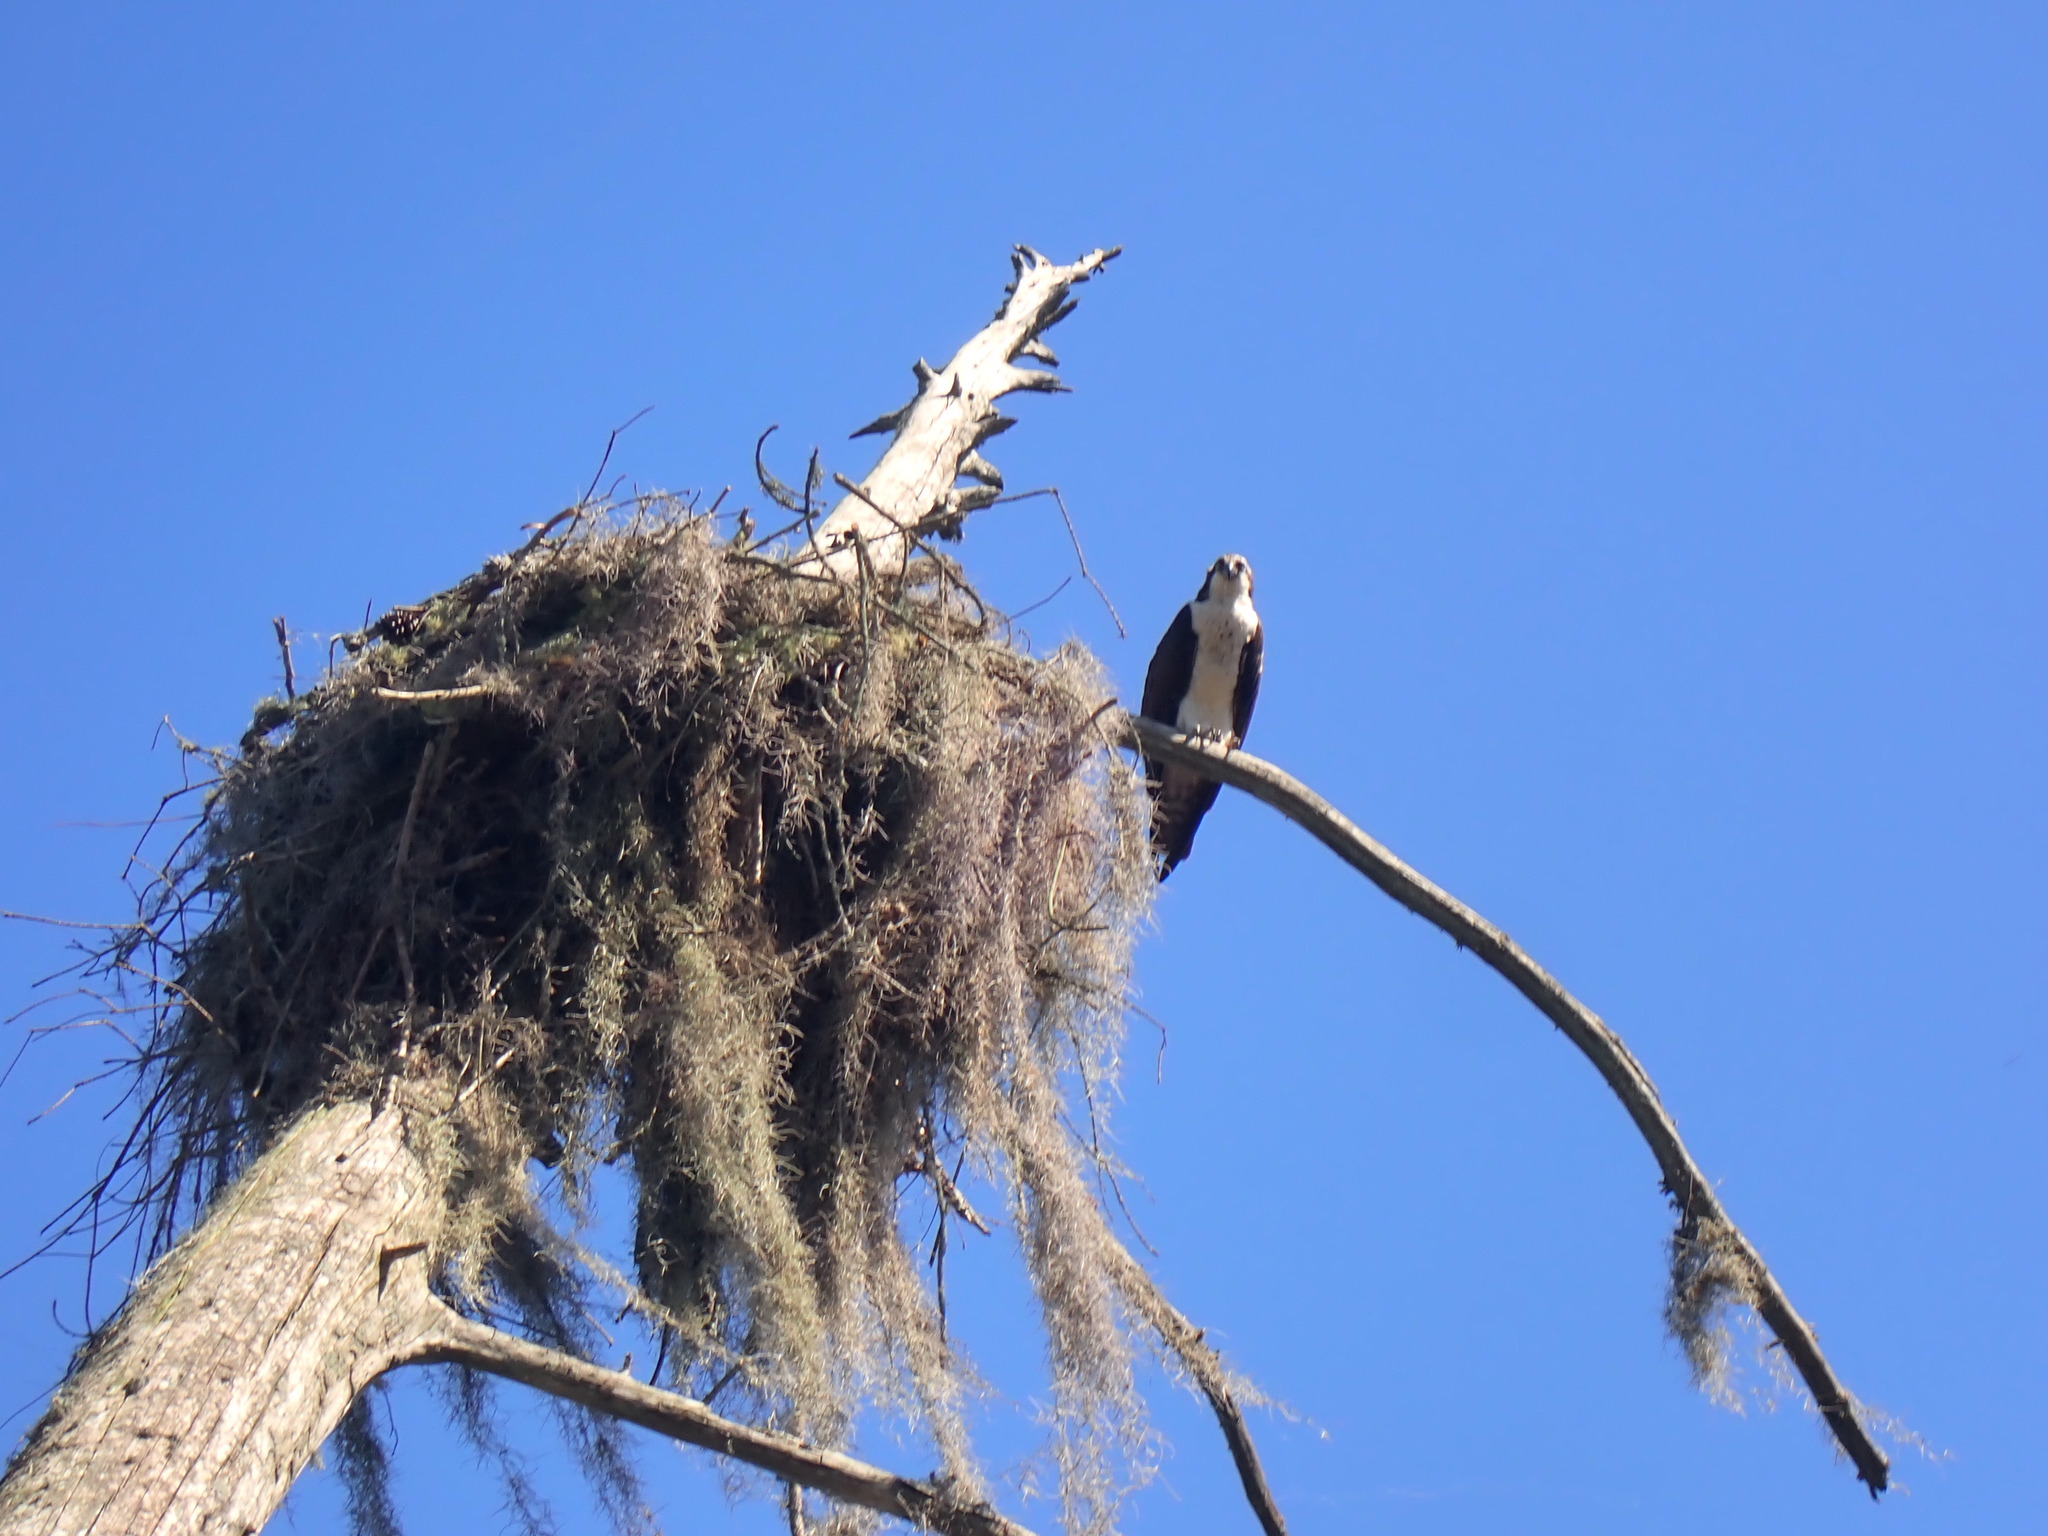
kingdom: Animalia
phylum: Chordata
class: Aves
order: Accipitriformes
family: Pandionidae
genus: Pandion
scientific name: Pandion haliaetus
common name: Osprey
